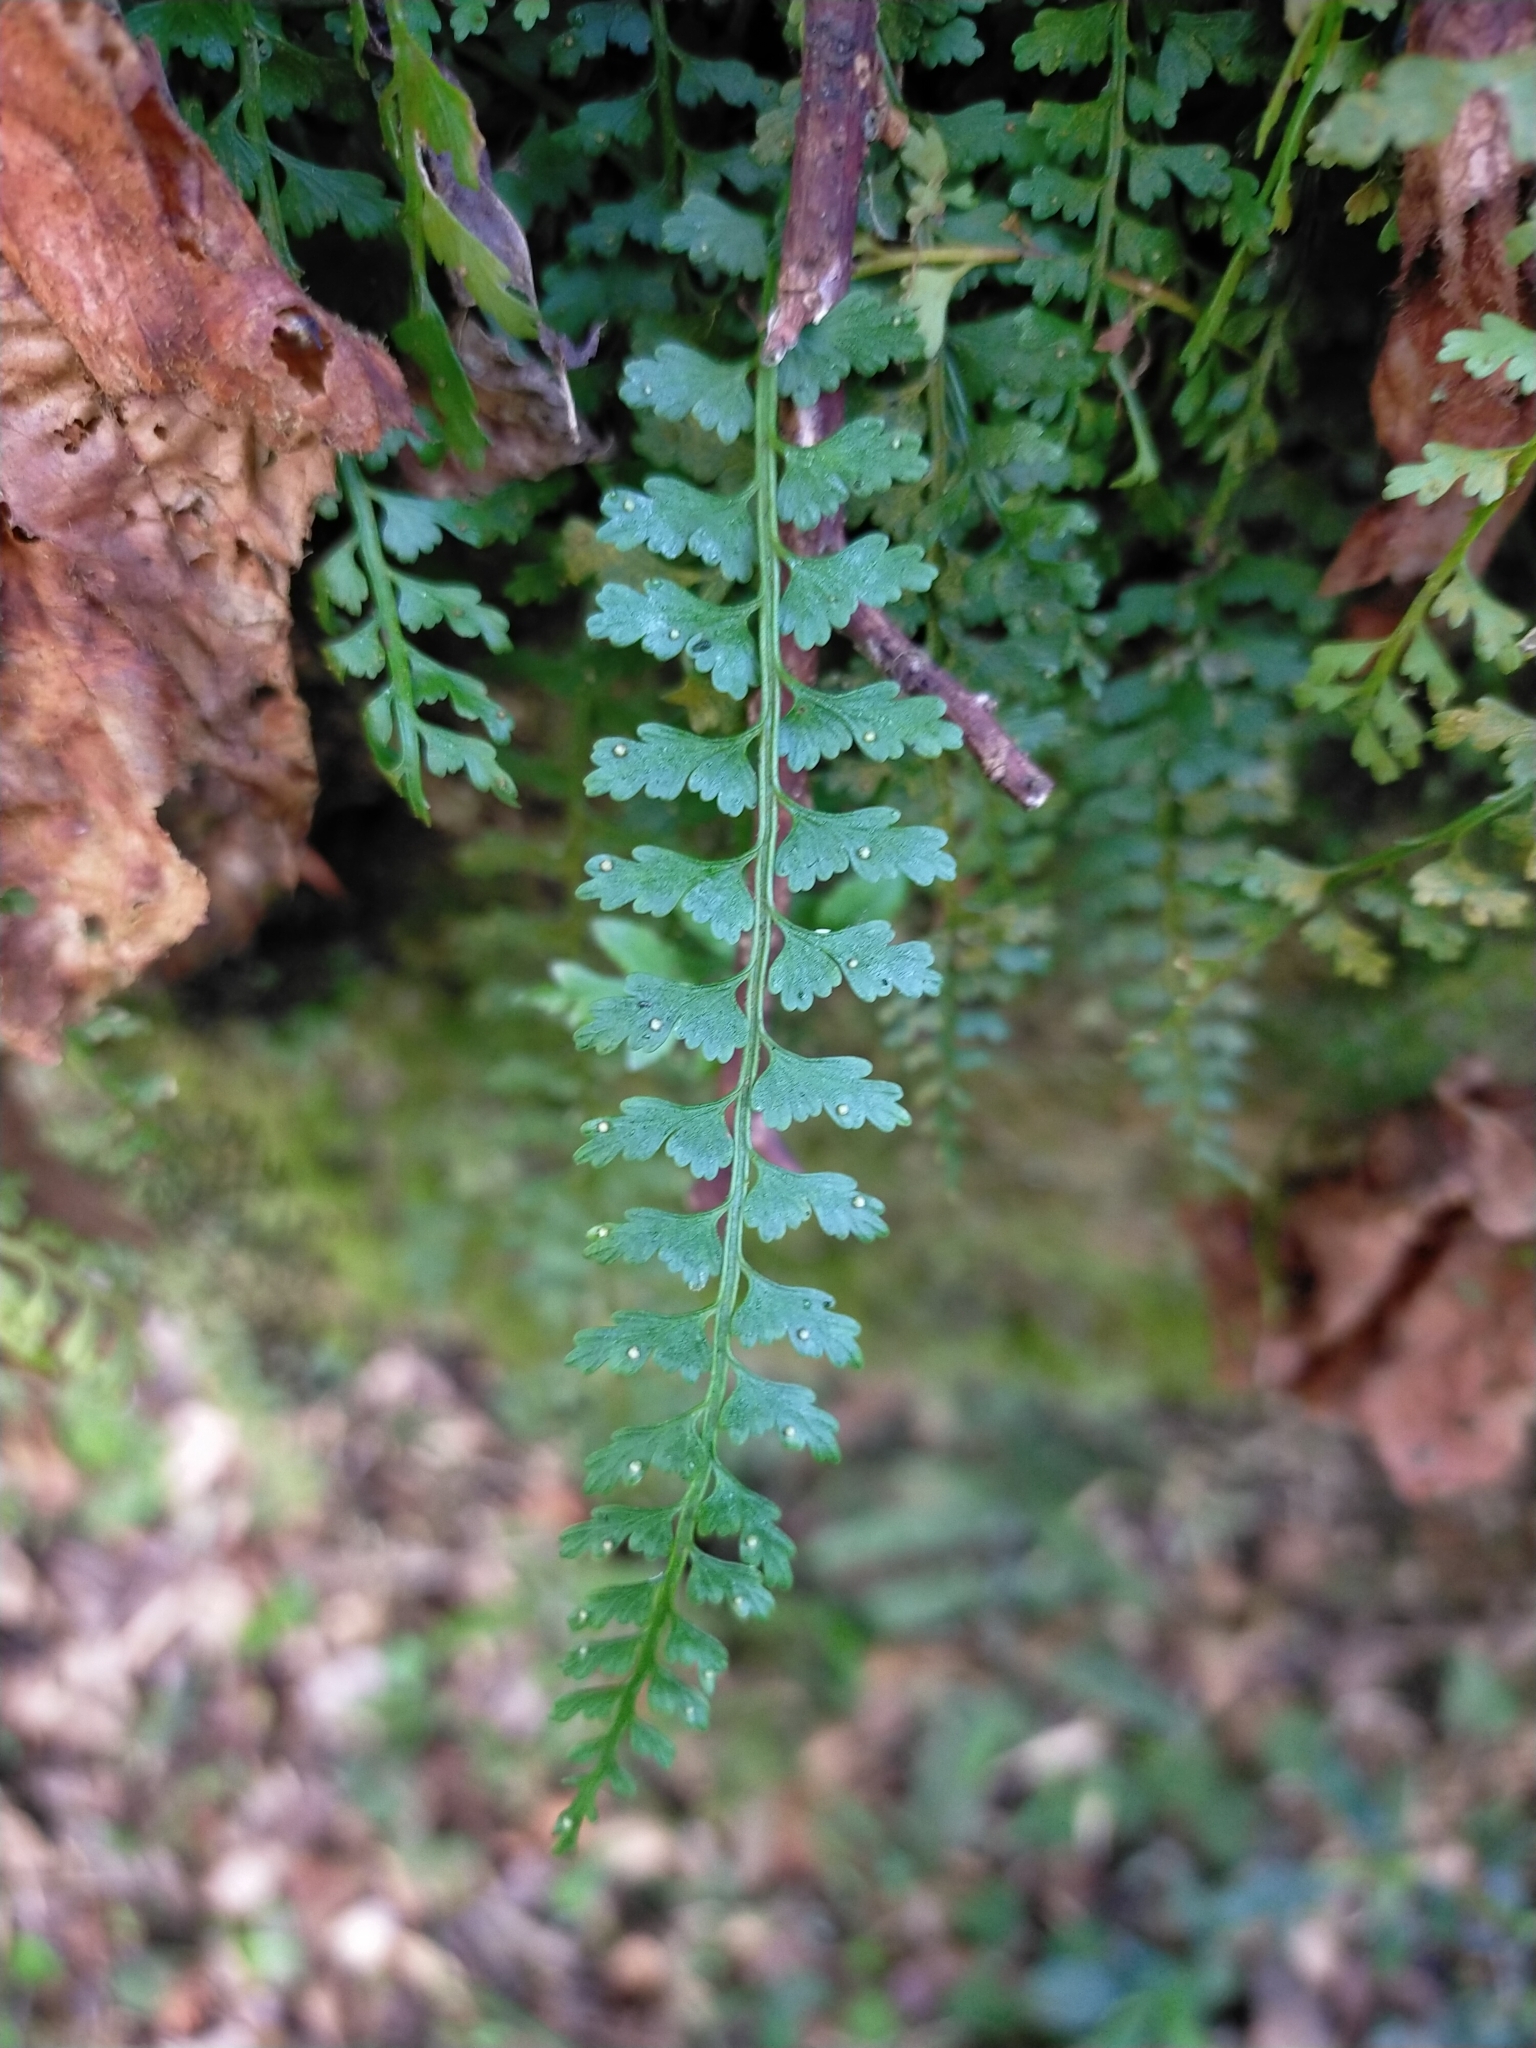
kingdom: Plantae
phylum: Tracheophyta
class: Polypodiopsida
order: Polypodiales
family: Aspleniaceae
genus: Asplenium
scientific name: Asplenium gueinzianum
